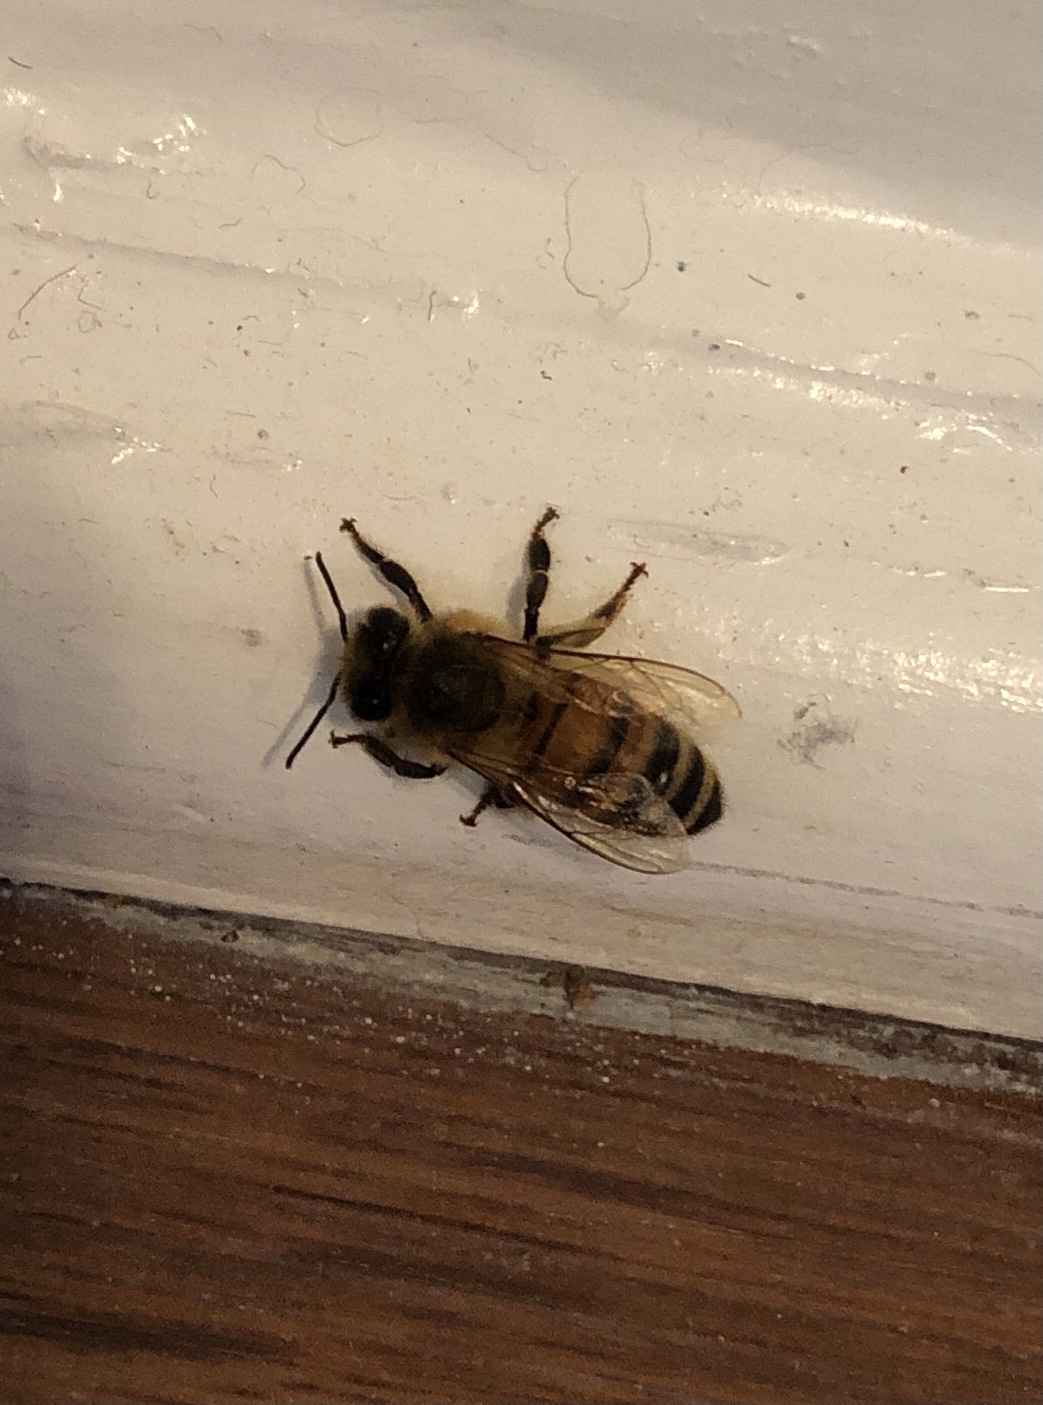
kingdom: Animalia
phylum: Arthropoda
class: Insecta
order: Hymenoptera
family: Apidae
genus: Apis
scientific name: Apis mellifera
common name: Honey bee
